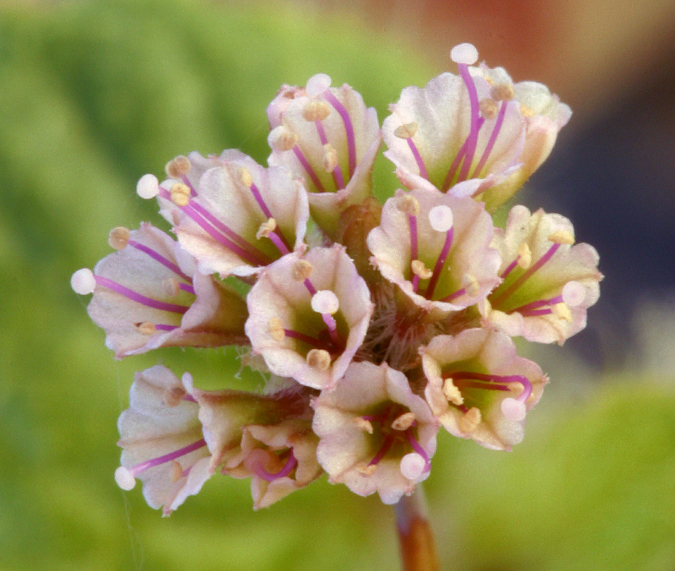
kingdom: Plantae
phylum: Tracheophyta
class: Magnoliopsida
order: Caryophyllales
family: Nyctaginaceae
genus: Anulocaulis
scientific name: Anulocaulis annulatus
